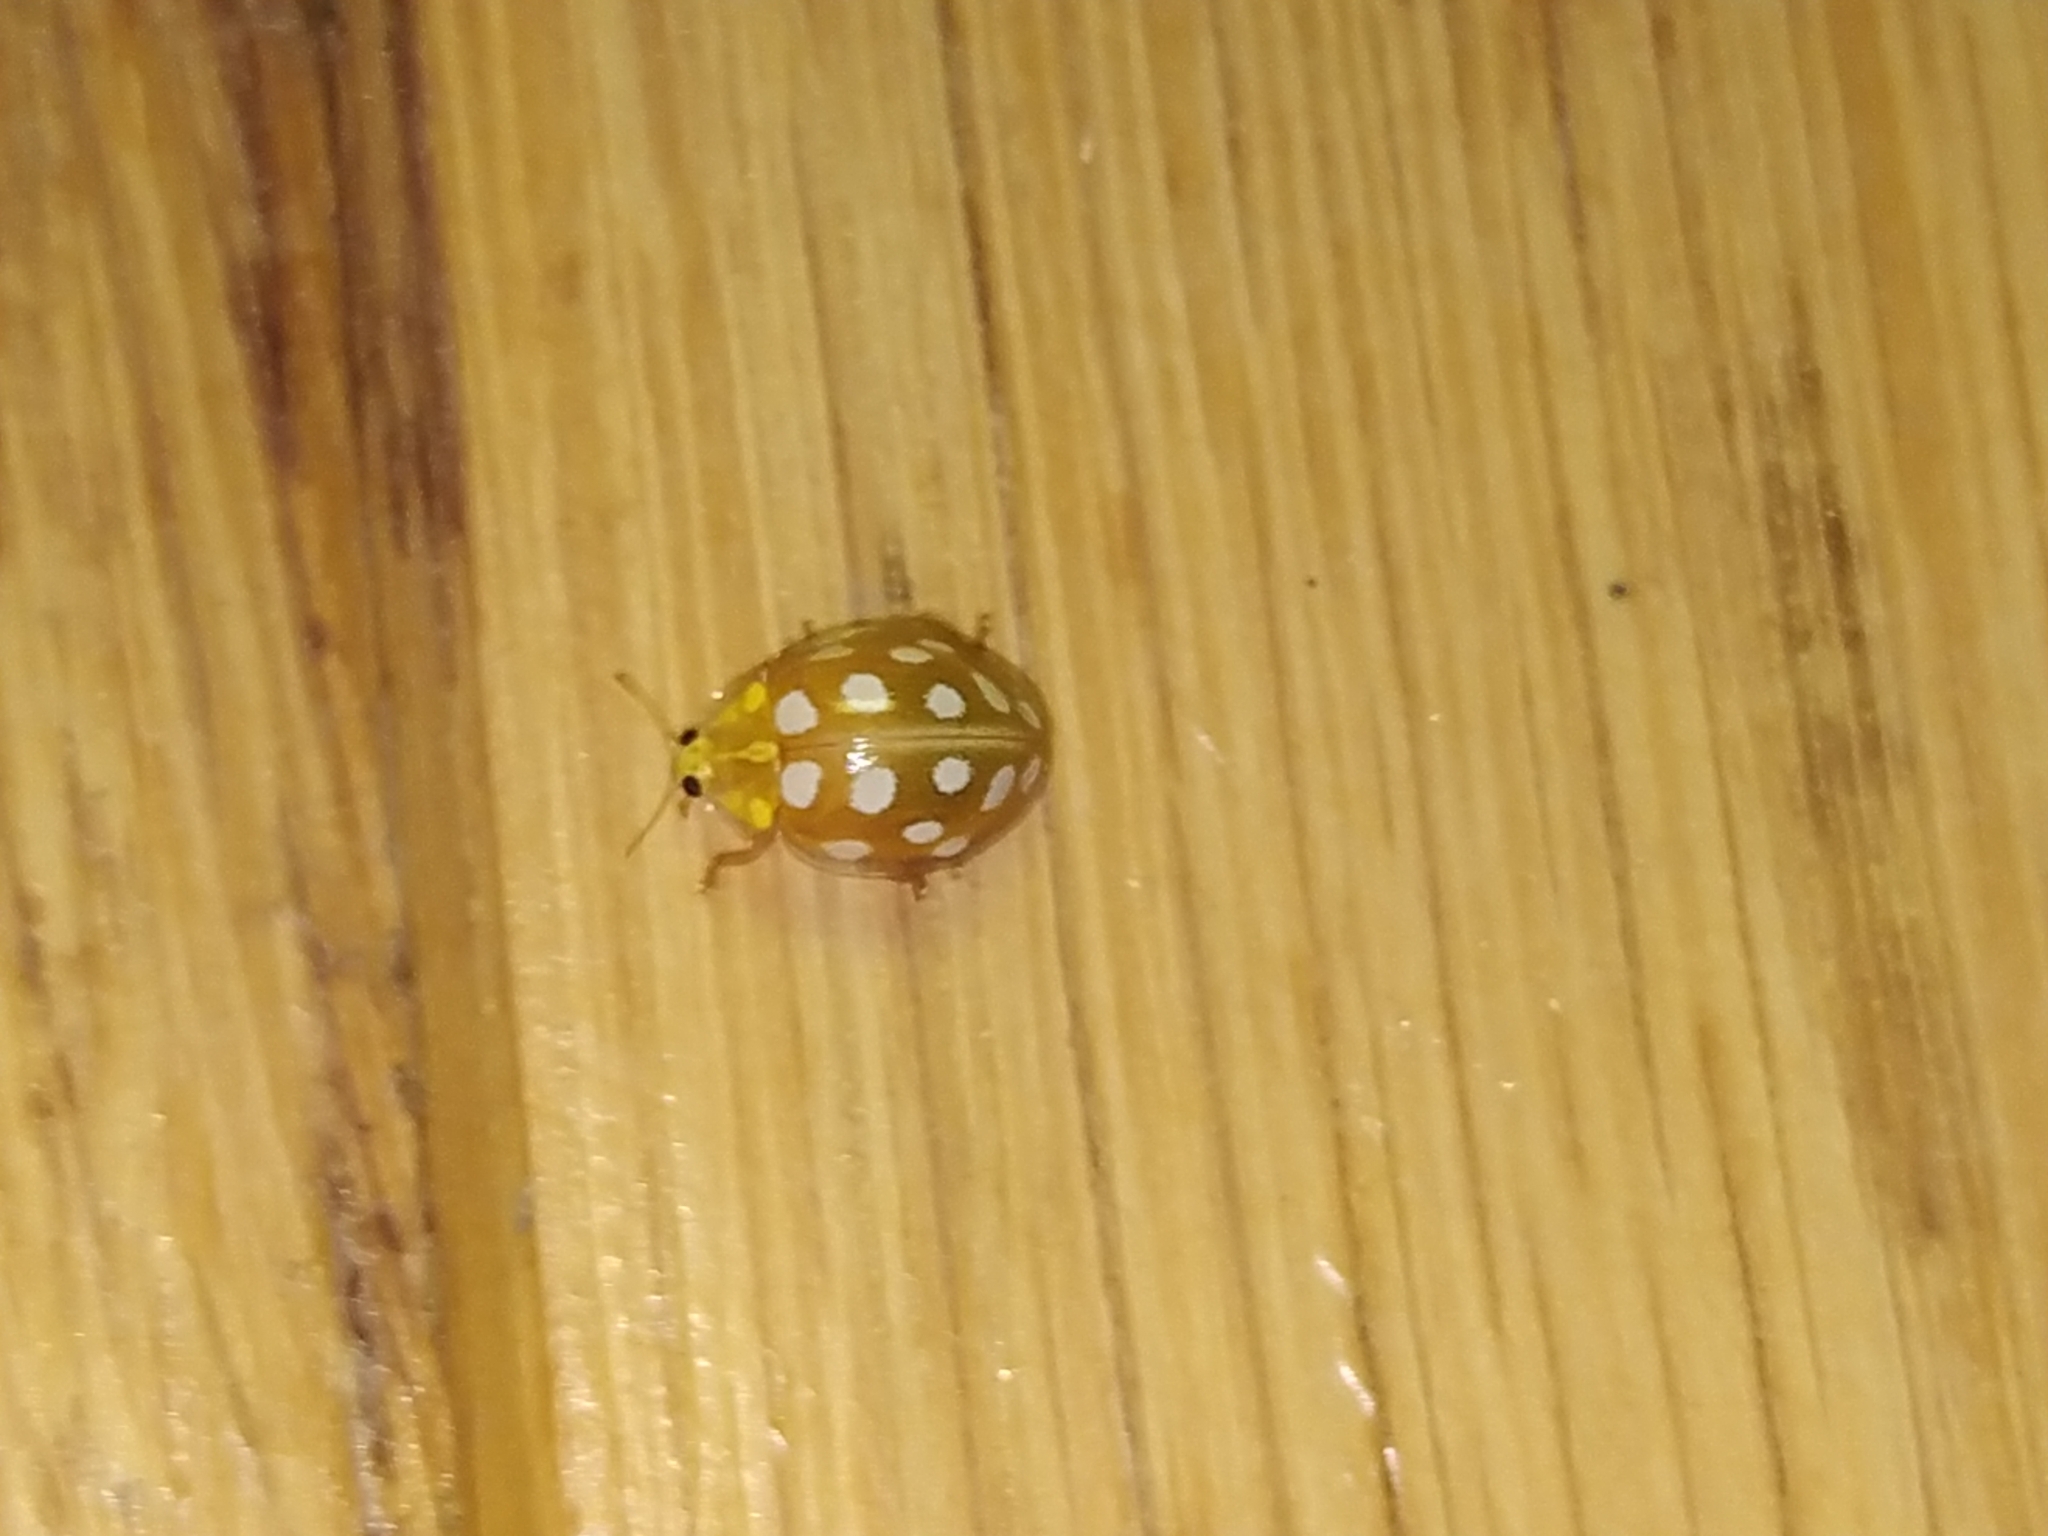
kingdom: Animalia
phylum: Arthropoda
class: Insecta
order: Coleoptera
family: Coccinellidae
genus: Halyzia
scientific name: Halyzia sedecimguttata
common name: Orange ladybird
